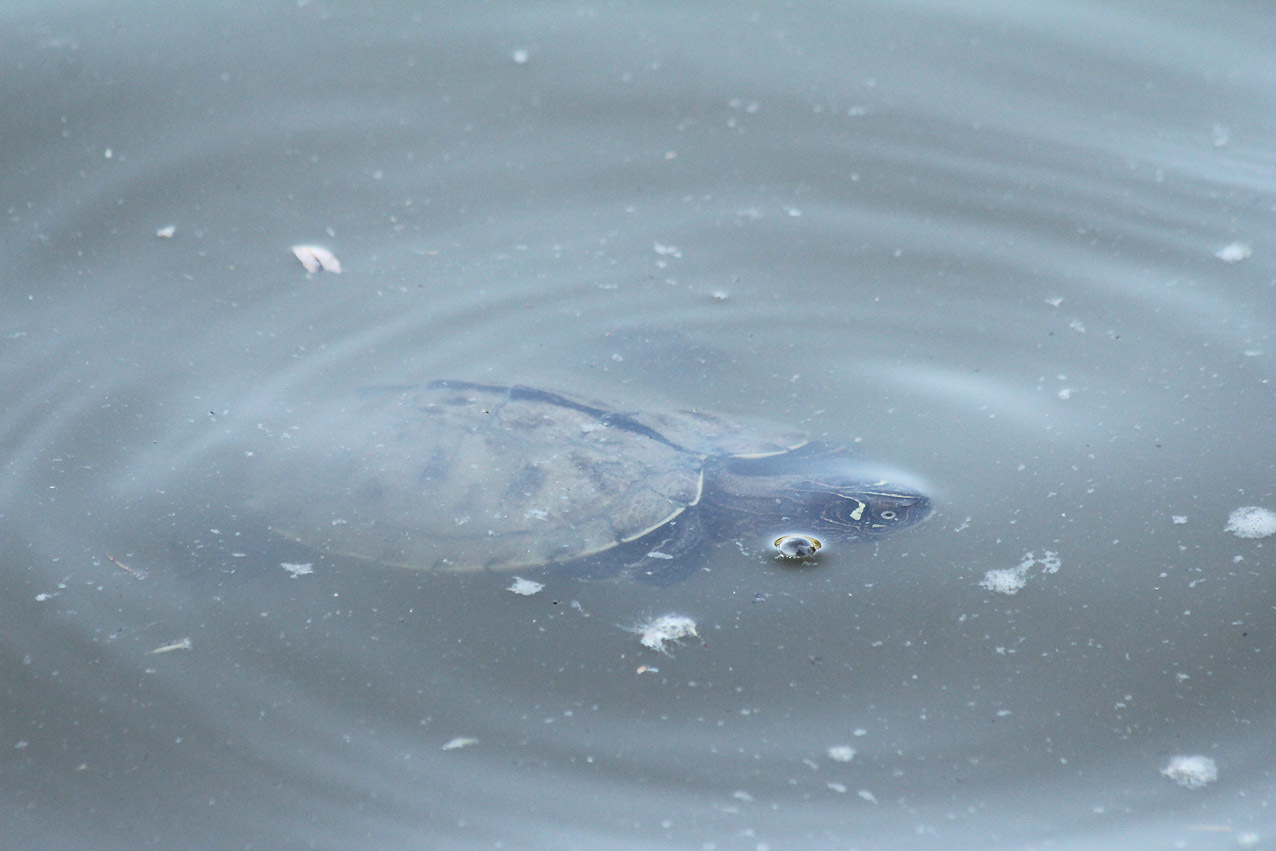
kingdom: Animalia
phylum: Chordata
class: Testudines
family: Emydidae
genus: Graptemys
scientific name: Graptemys pseudogeographica
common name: False map turtle
